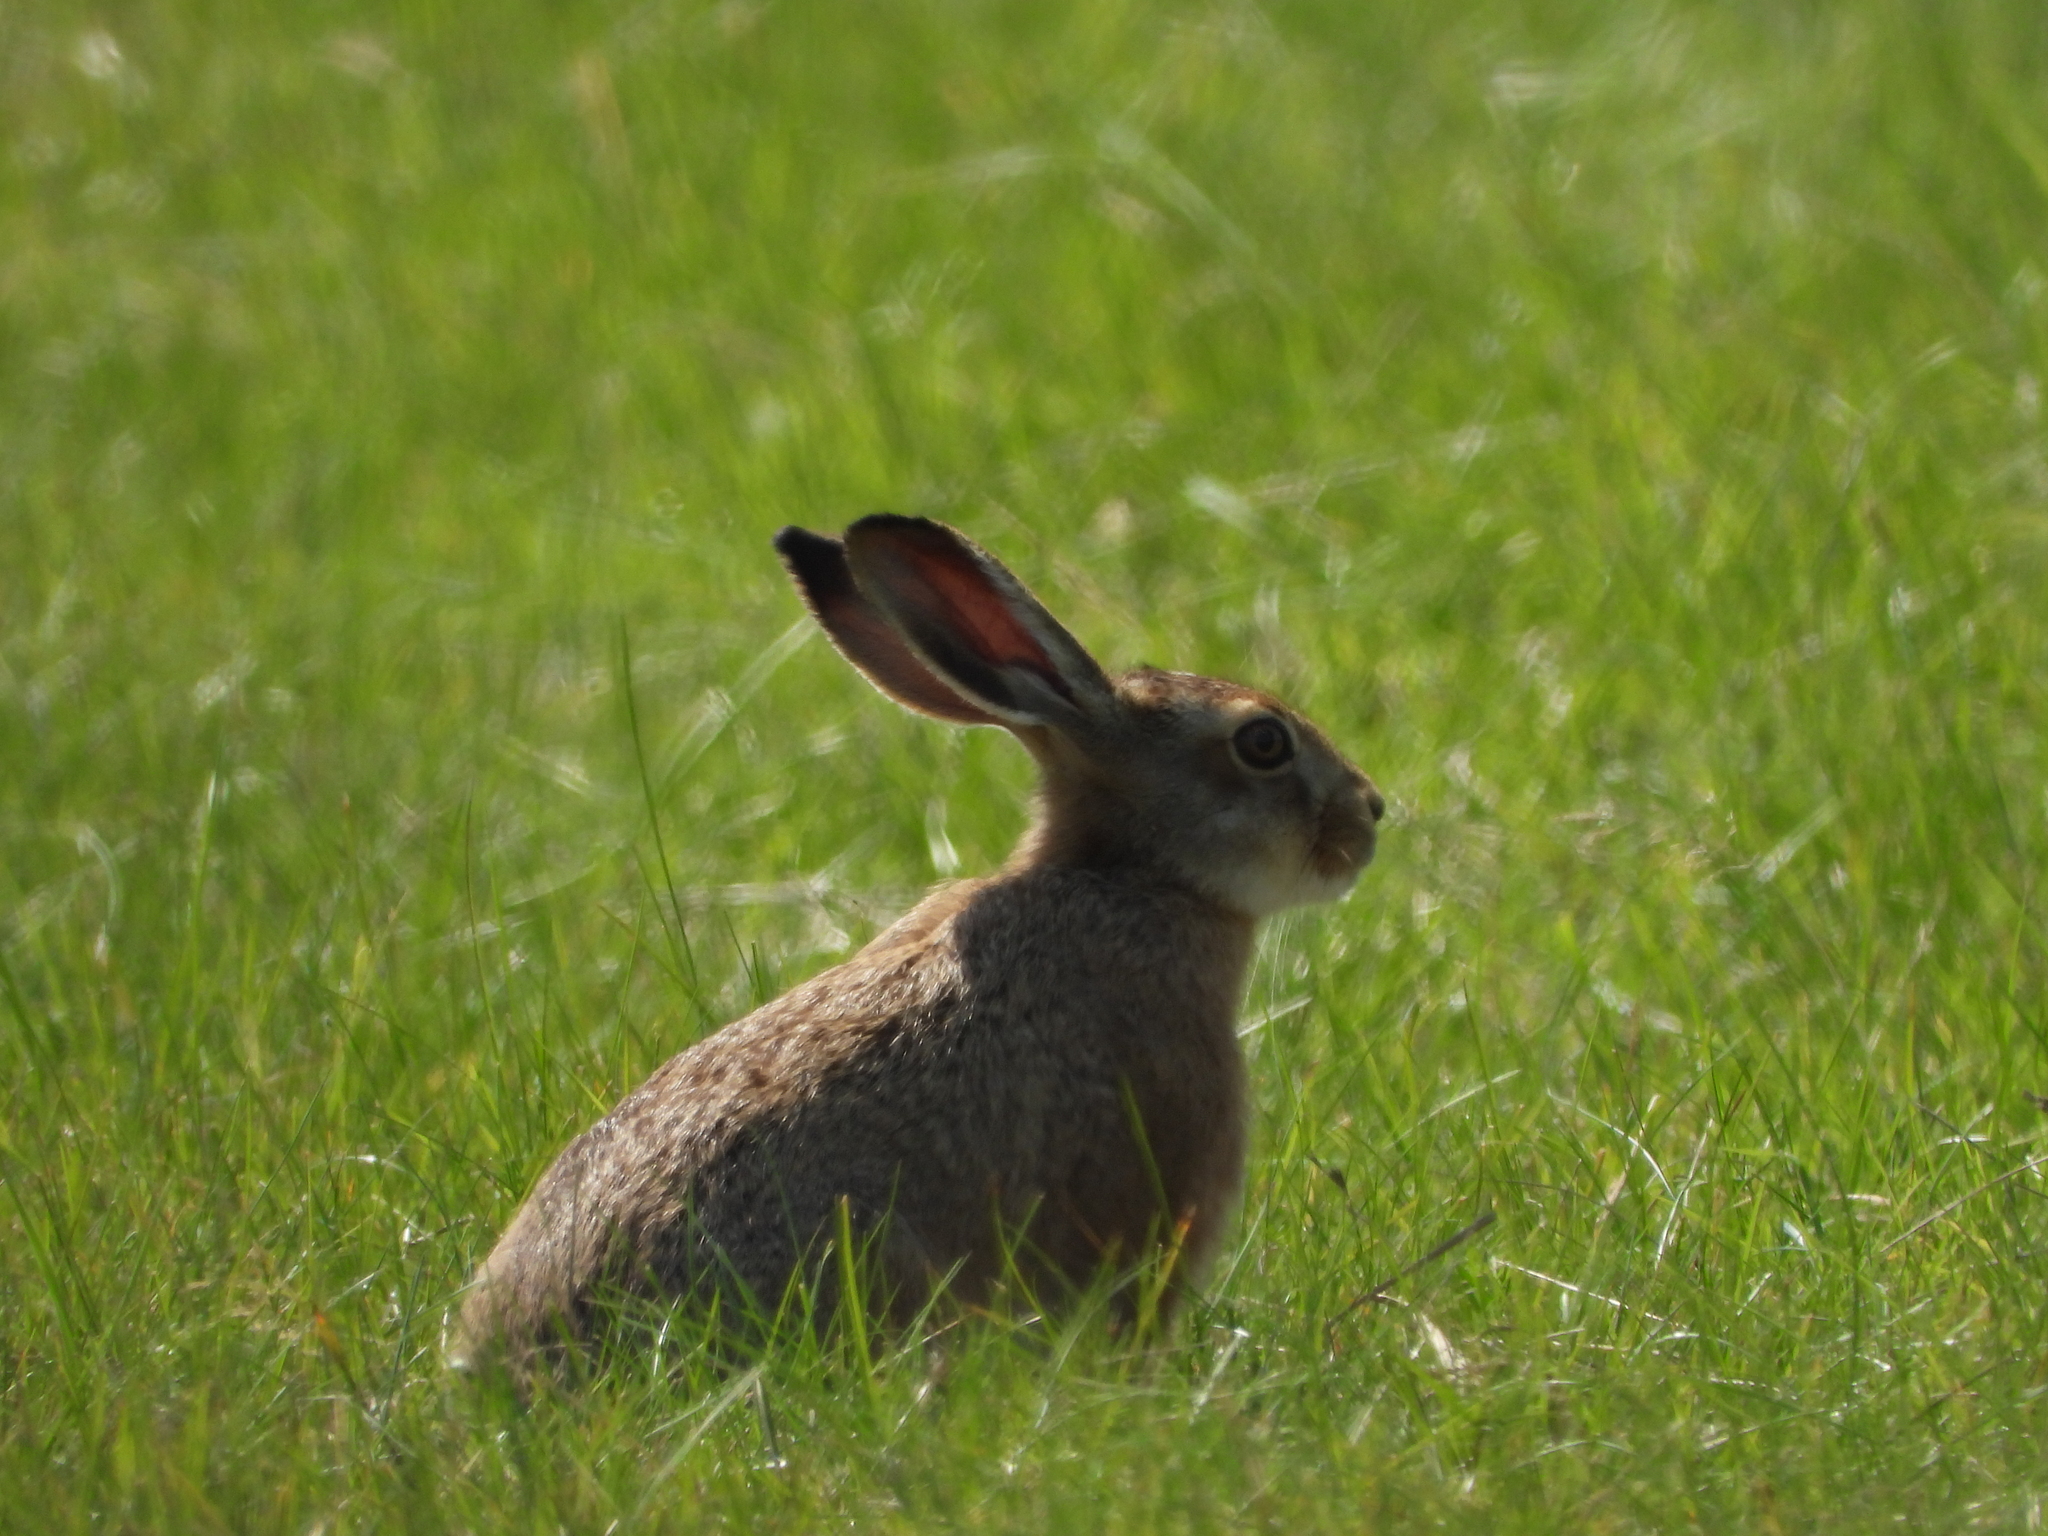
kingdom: Animalia
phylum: Chordata
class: Mammalia
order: Lagomorpha
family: Leporidae
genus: Lepus
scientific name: Lepus europaeus
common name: European hare
